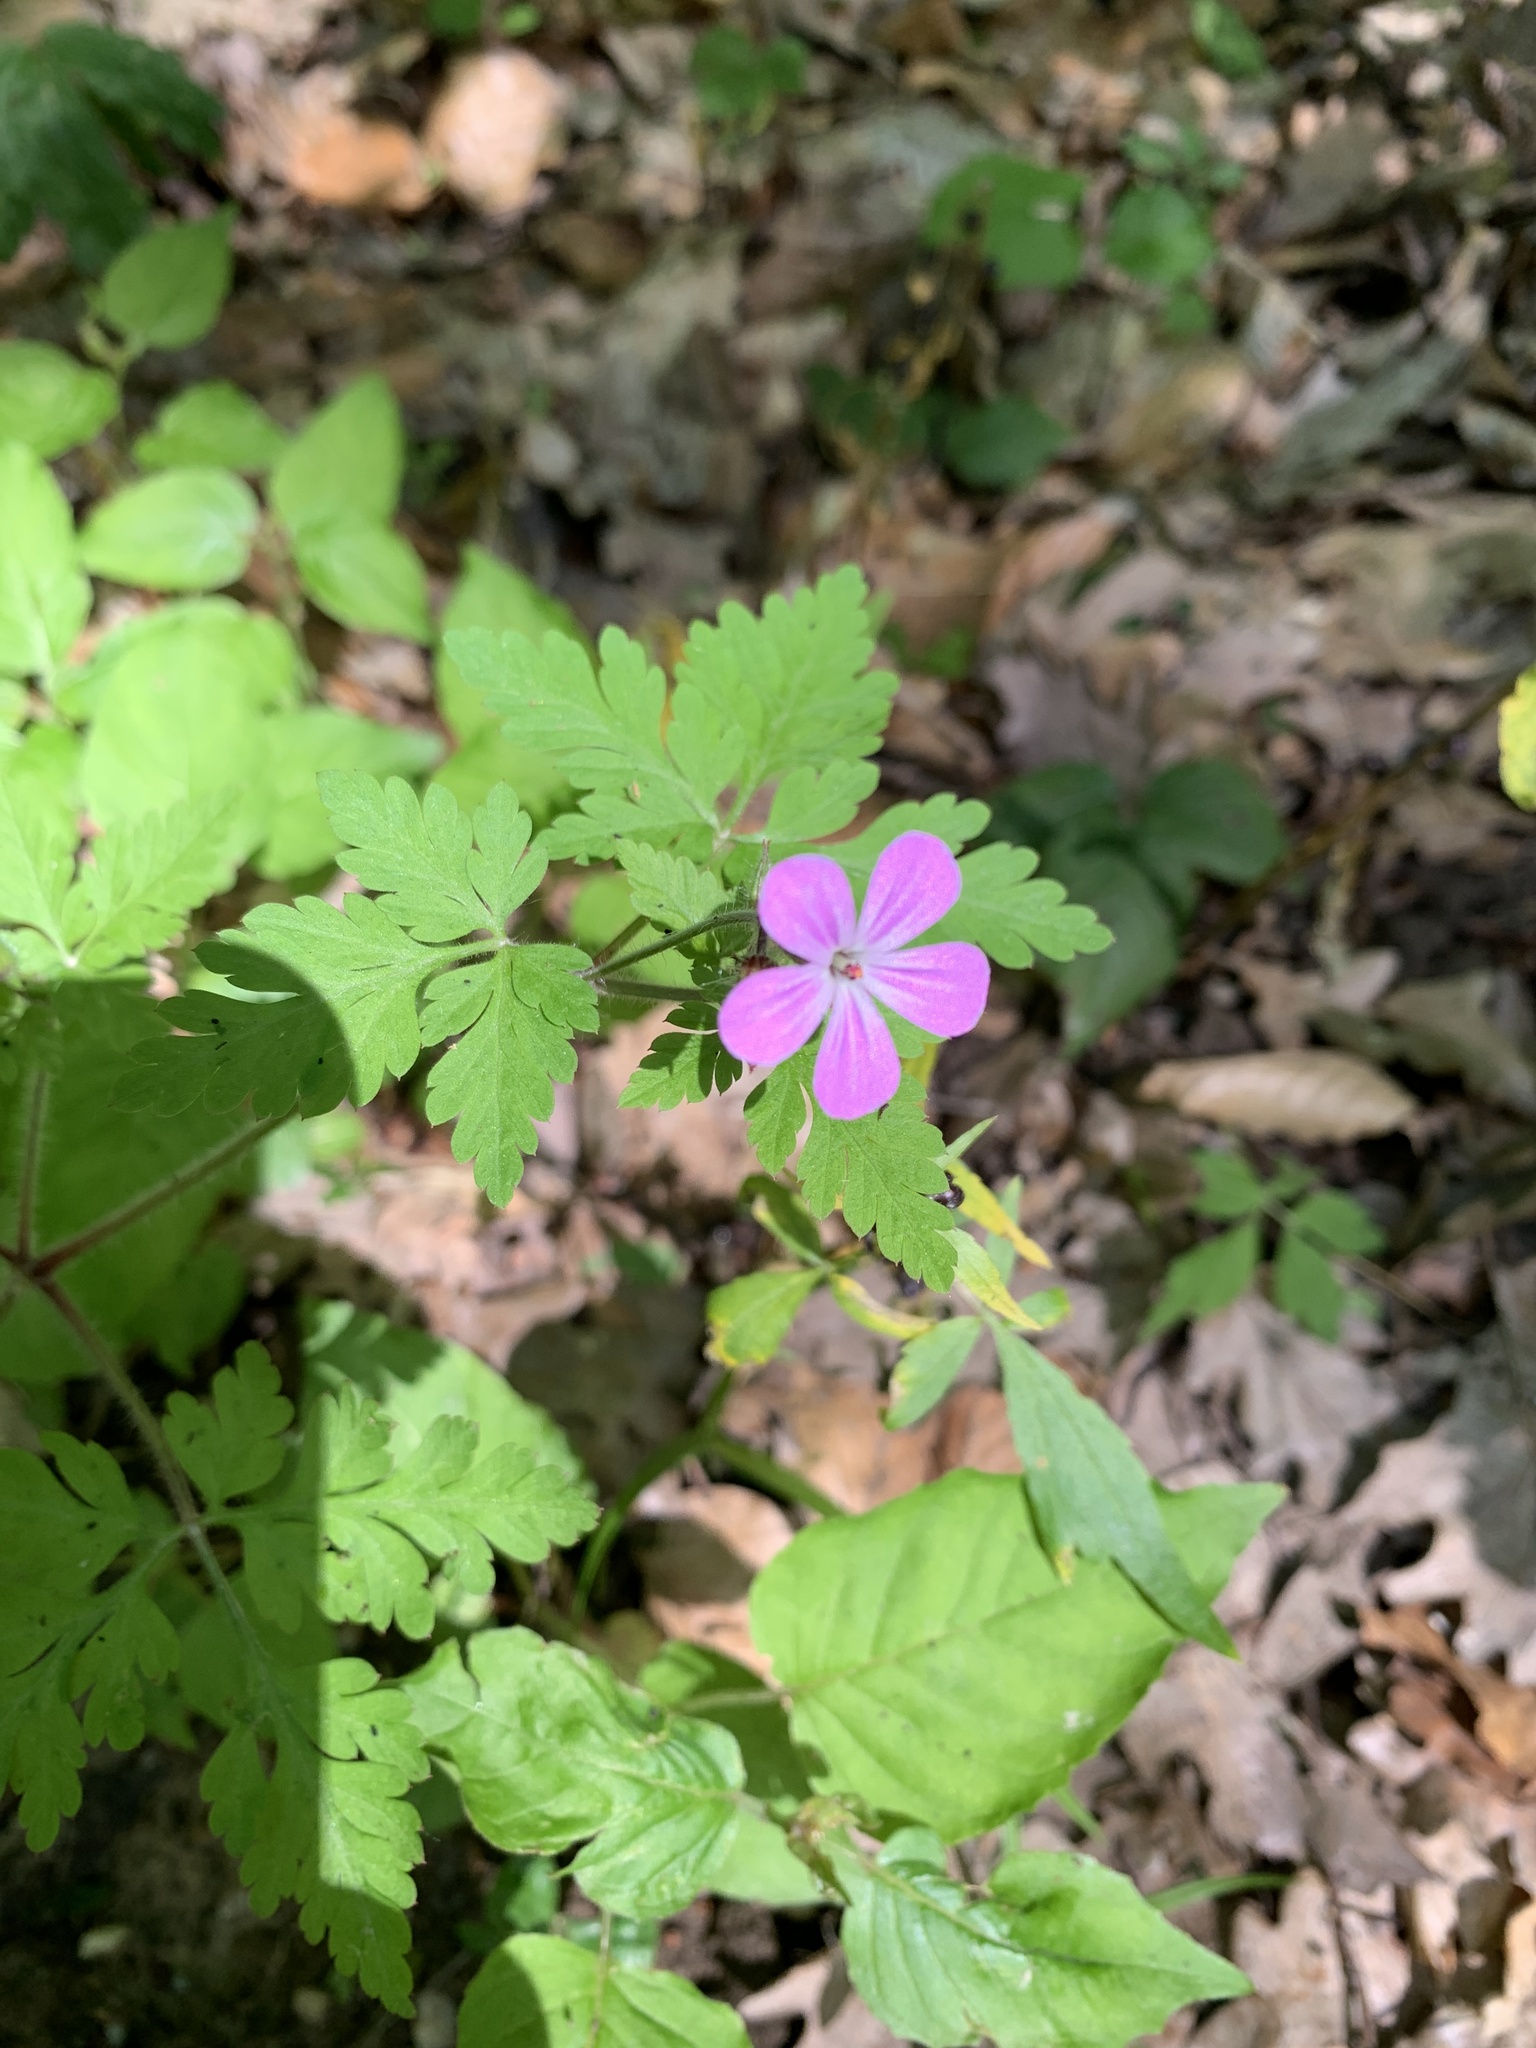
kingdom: Plantae
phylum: Tracheophyta
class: Magnoliopsida
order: Geraniales
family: Geraniaceae
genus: Geranium
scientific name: Geranium robertianum
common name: Herb-robert
